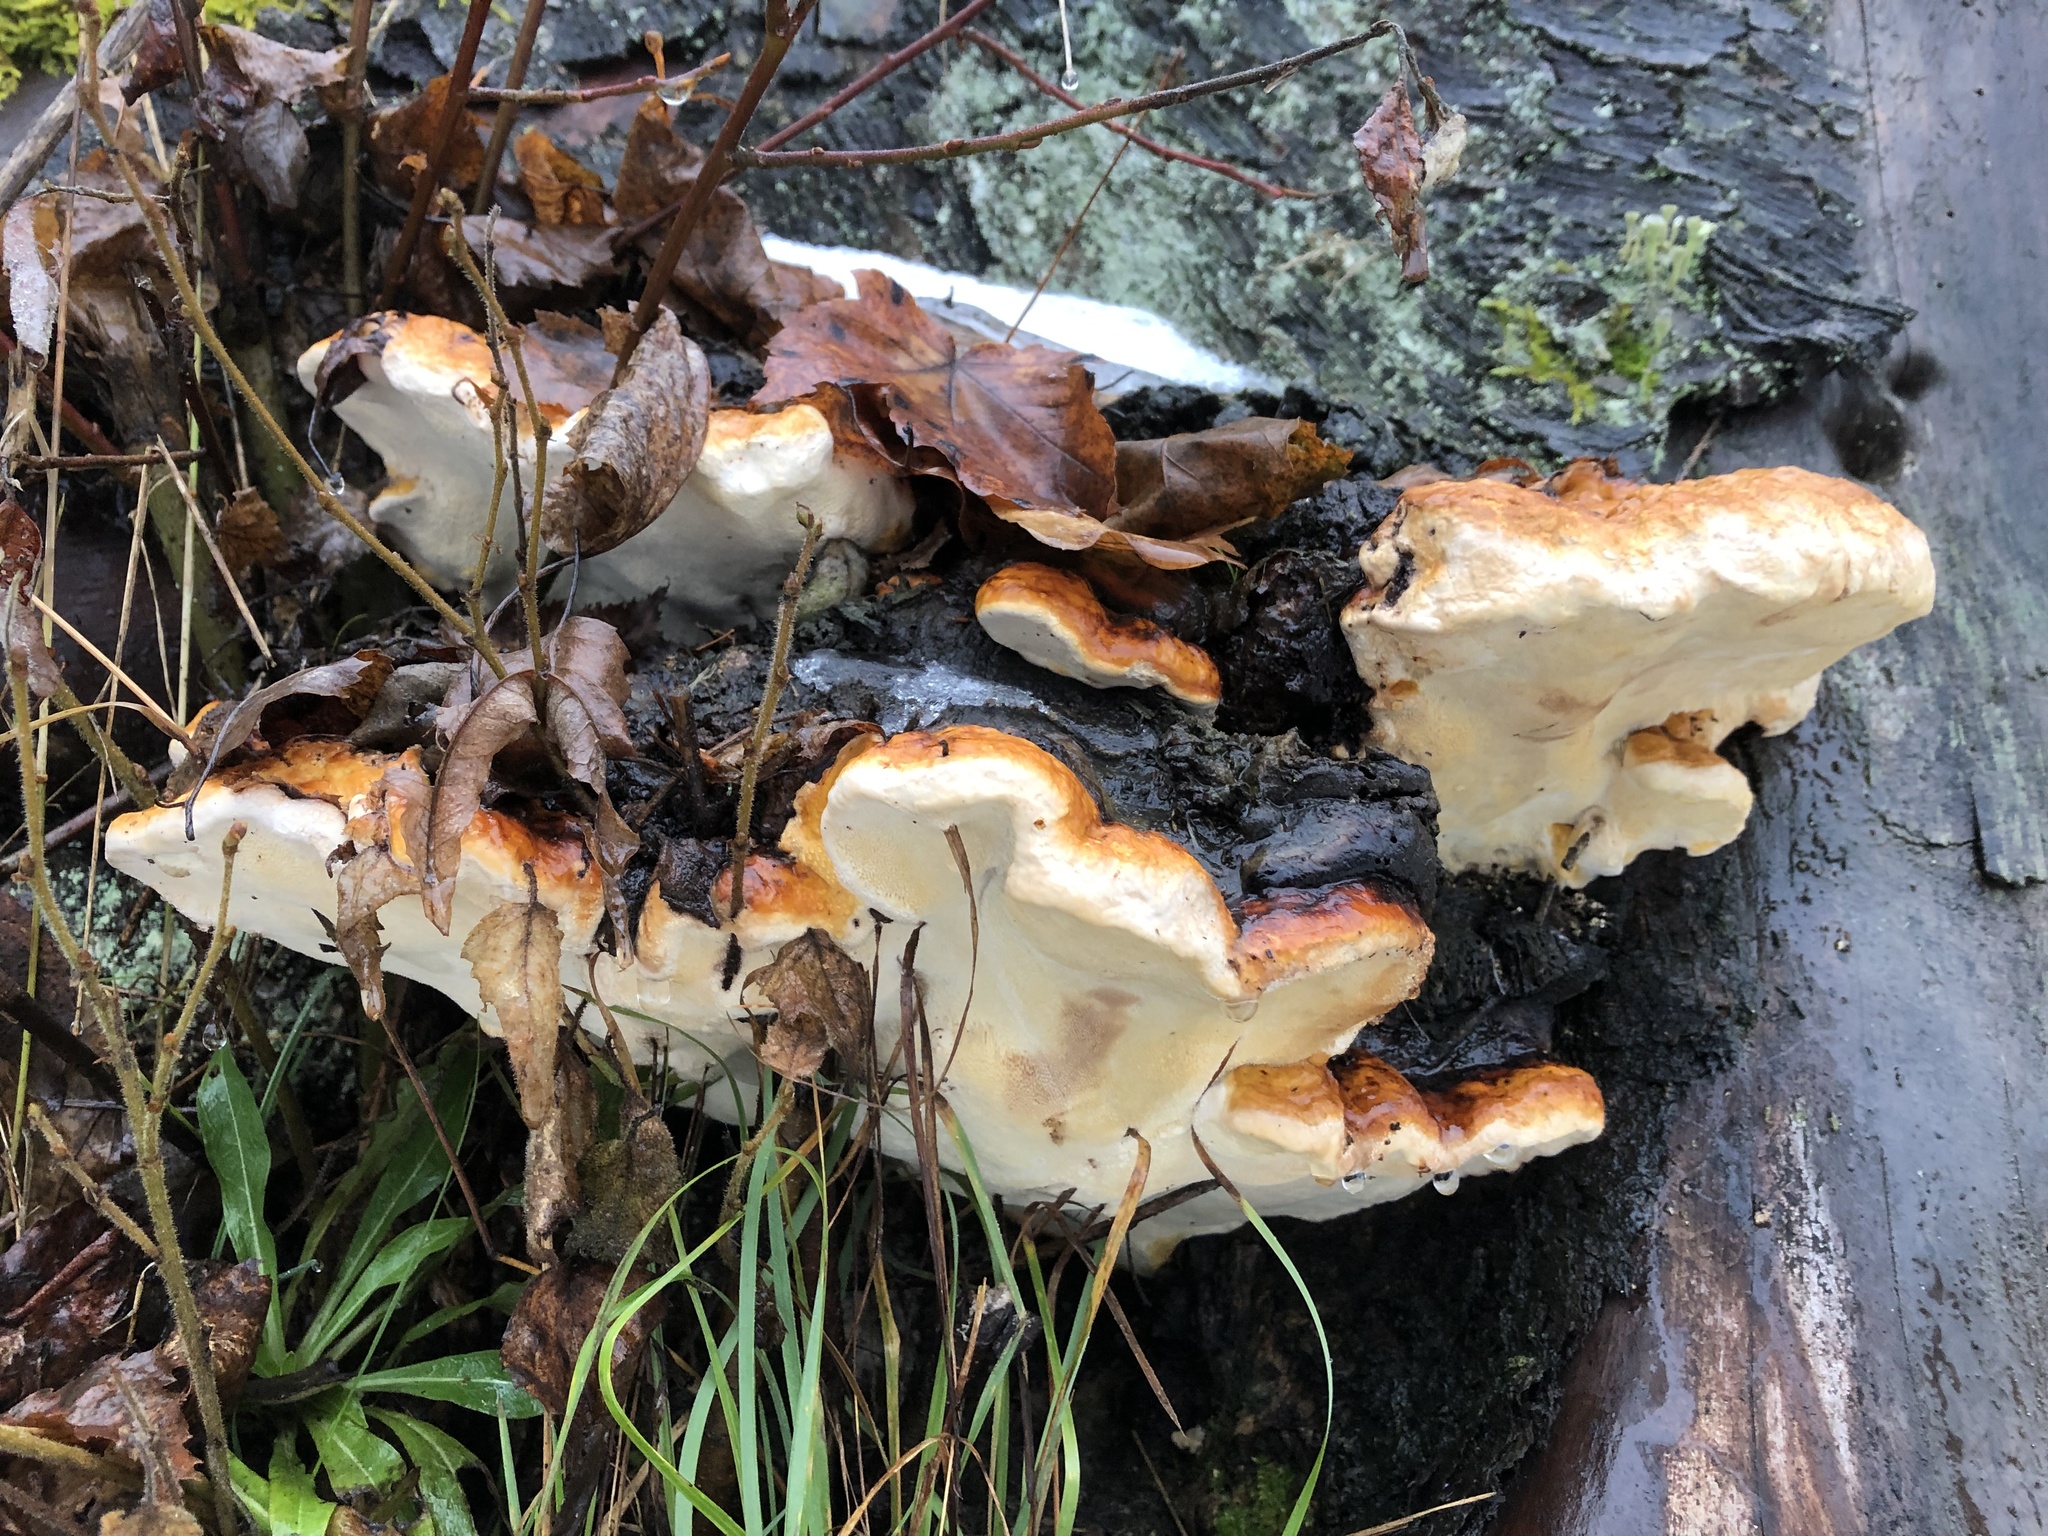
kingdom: Fungi
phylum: Basidiomycota
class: Agaricomycetes
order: Polyporales
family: Fomitopsidaceae
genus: Fomitopsis
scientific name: Fomitopsis pinicola
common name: Red-belted bracket
